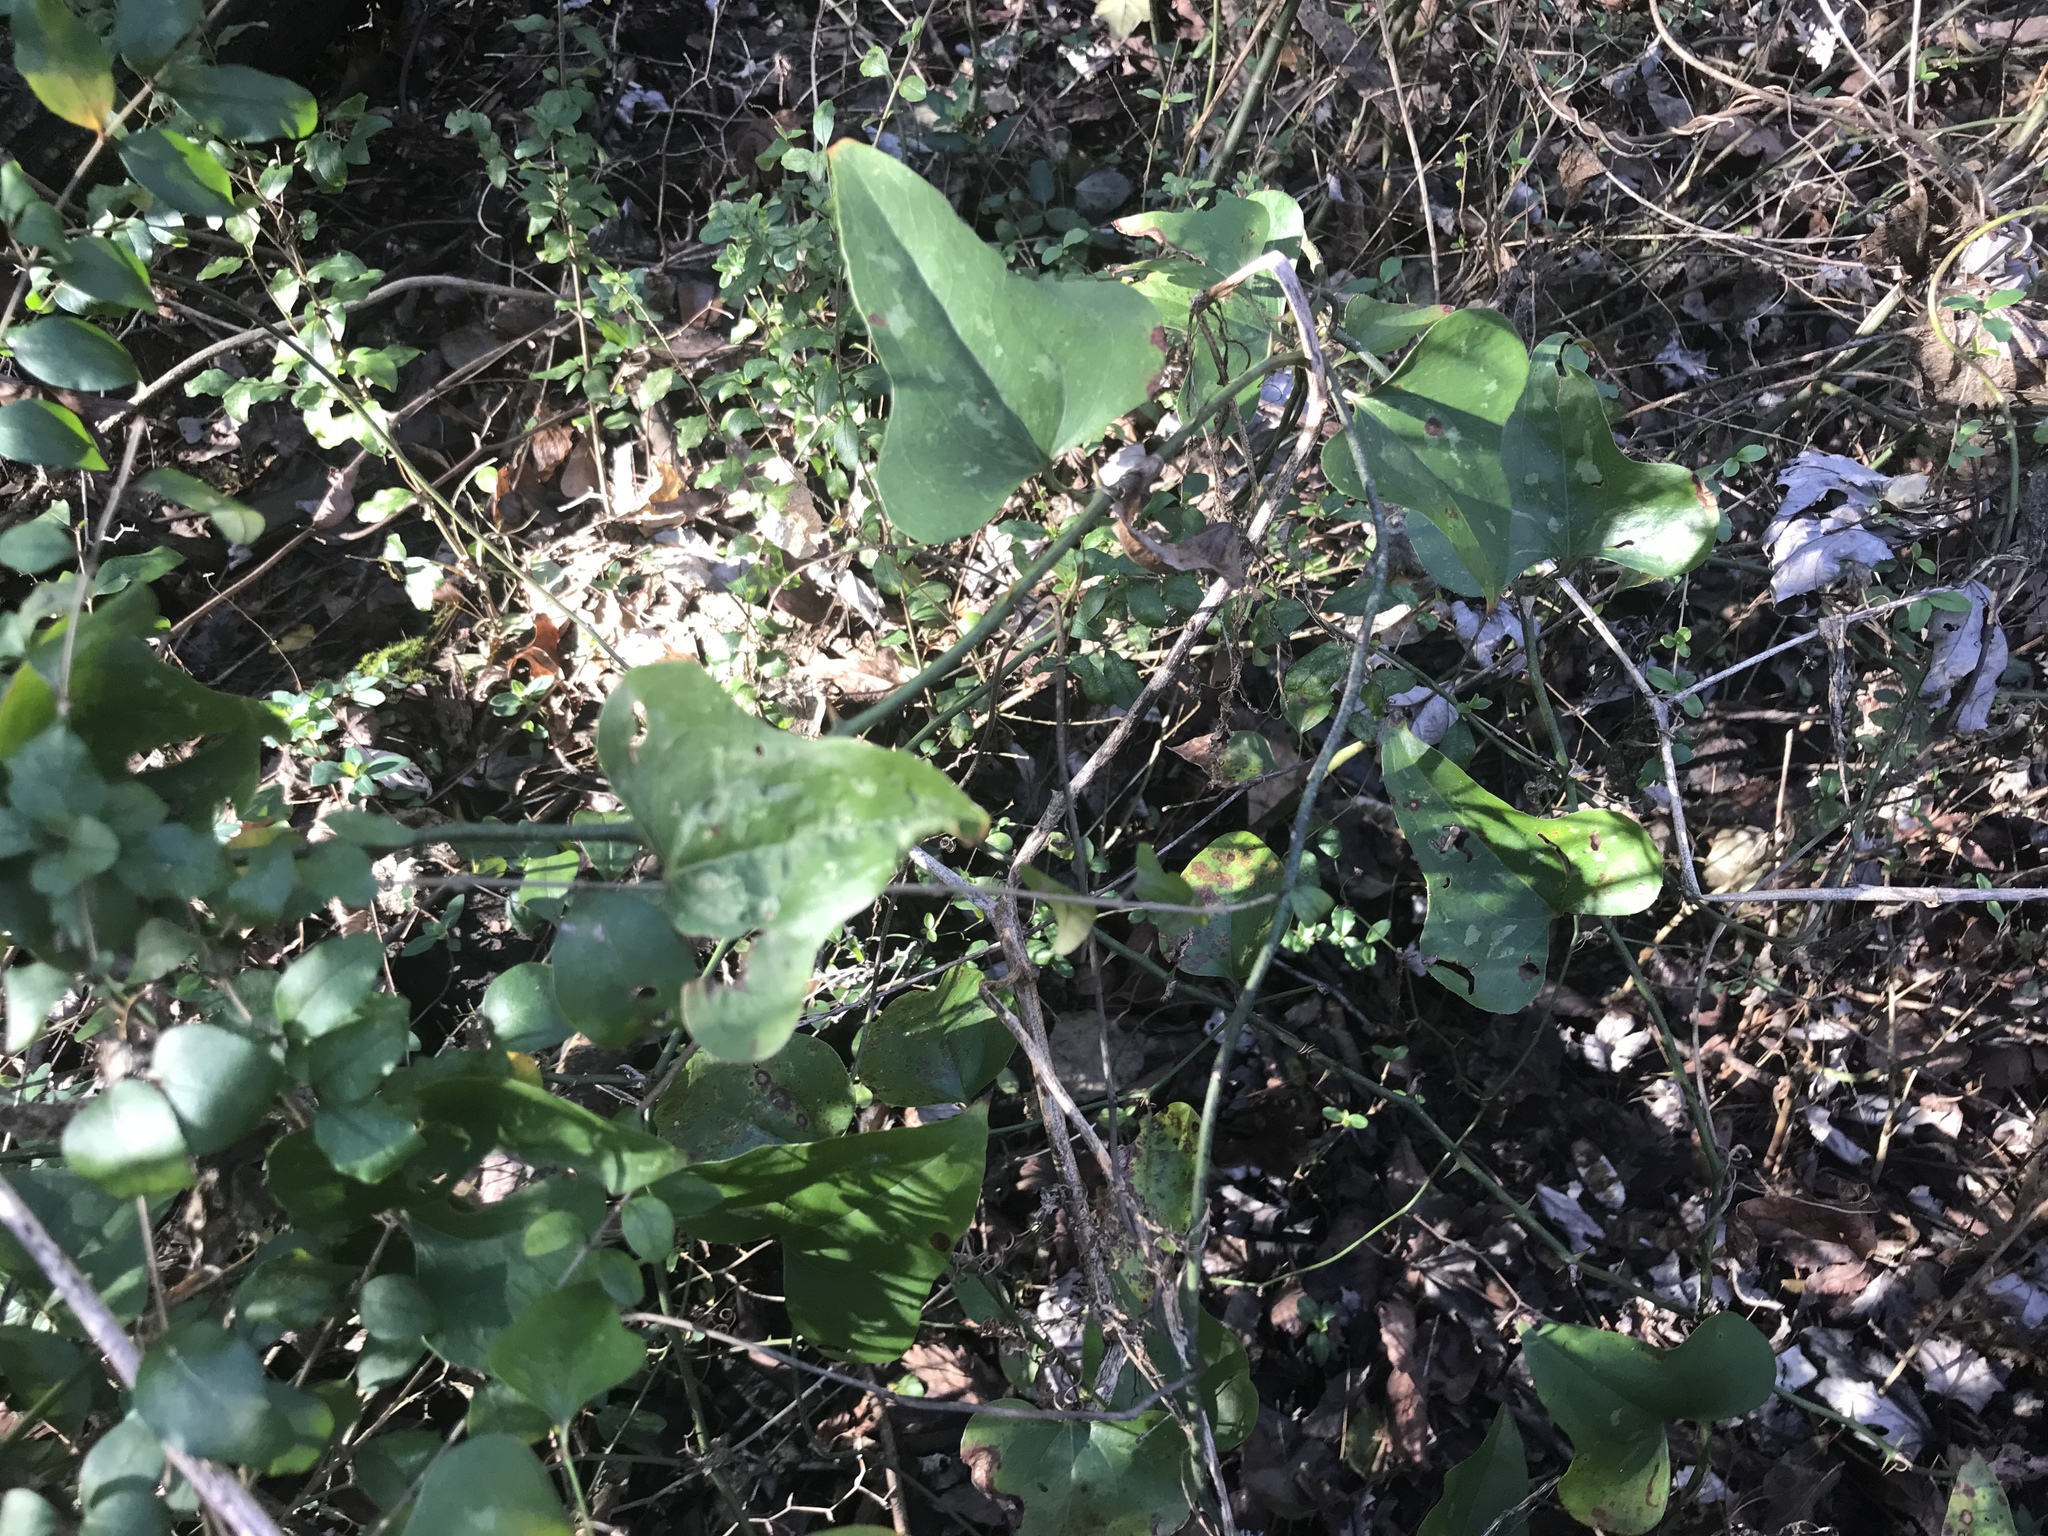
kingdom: Plantae
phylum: Tracheophyta
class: Liliopsida
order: Liliales
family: Smilacaceae
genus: Smilax
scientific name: Smilax bona-nox
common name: Catbrier
